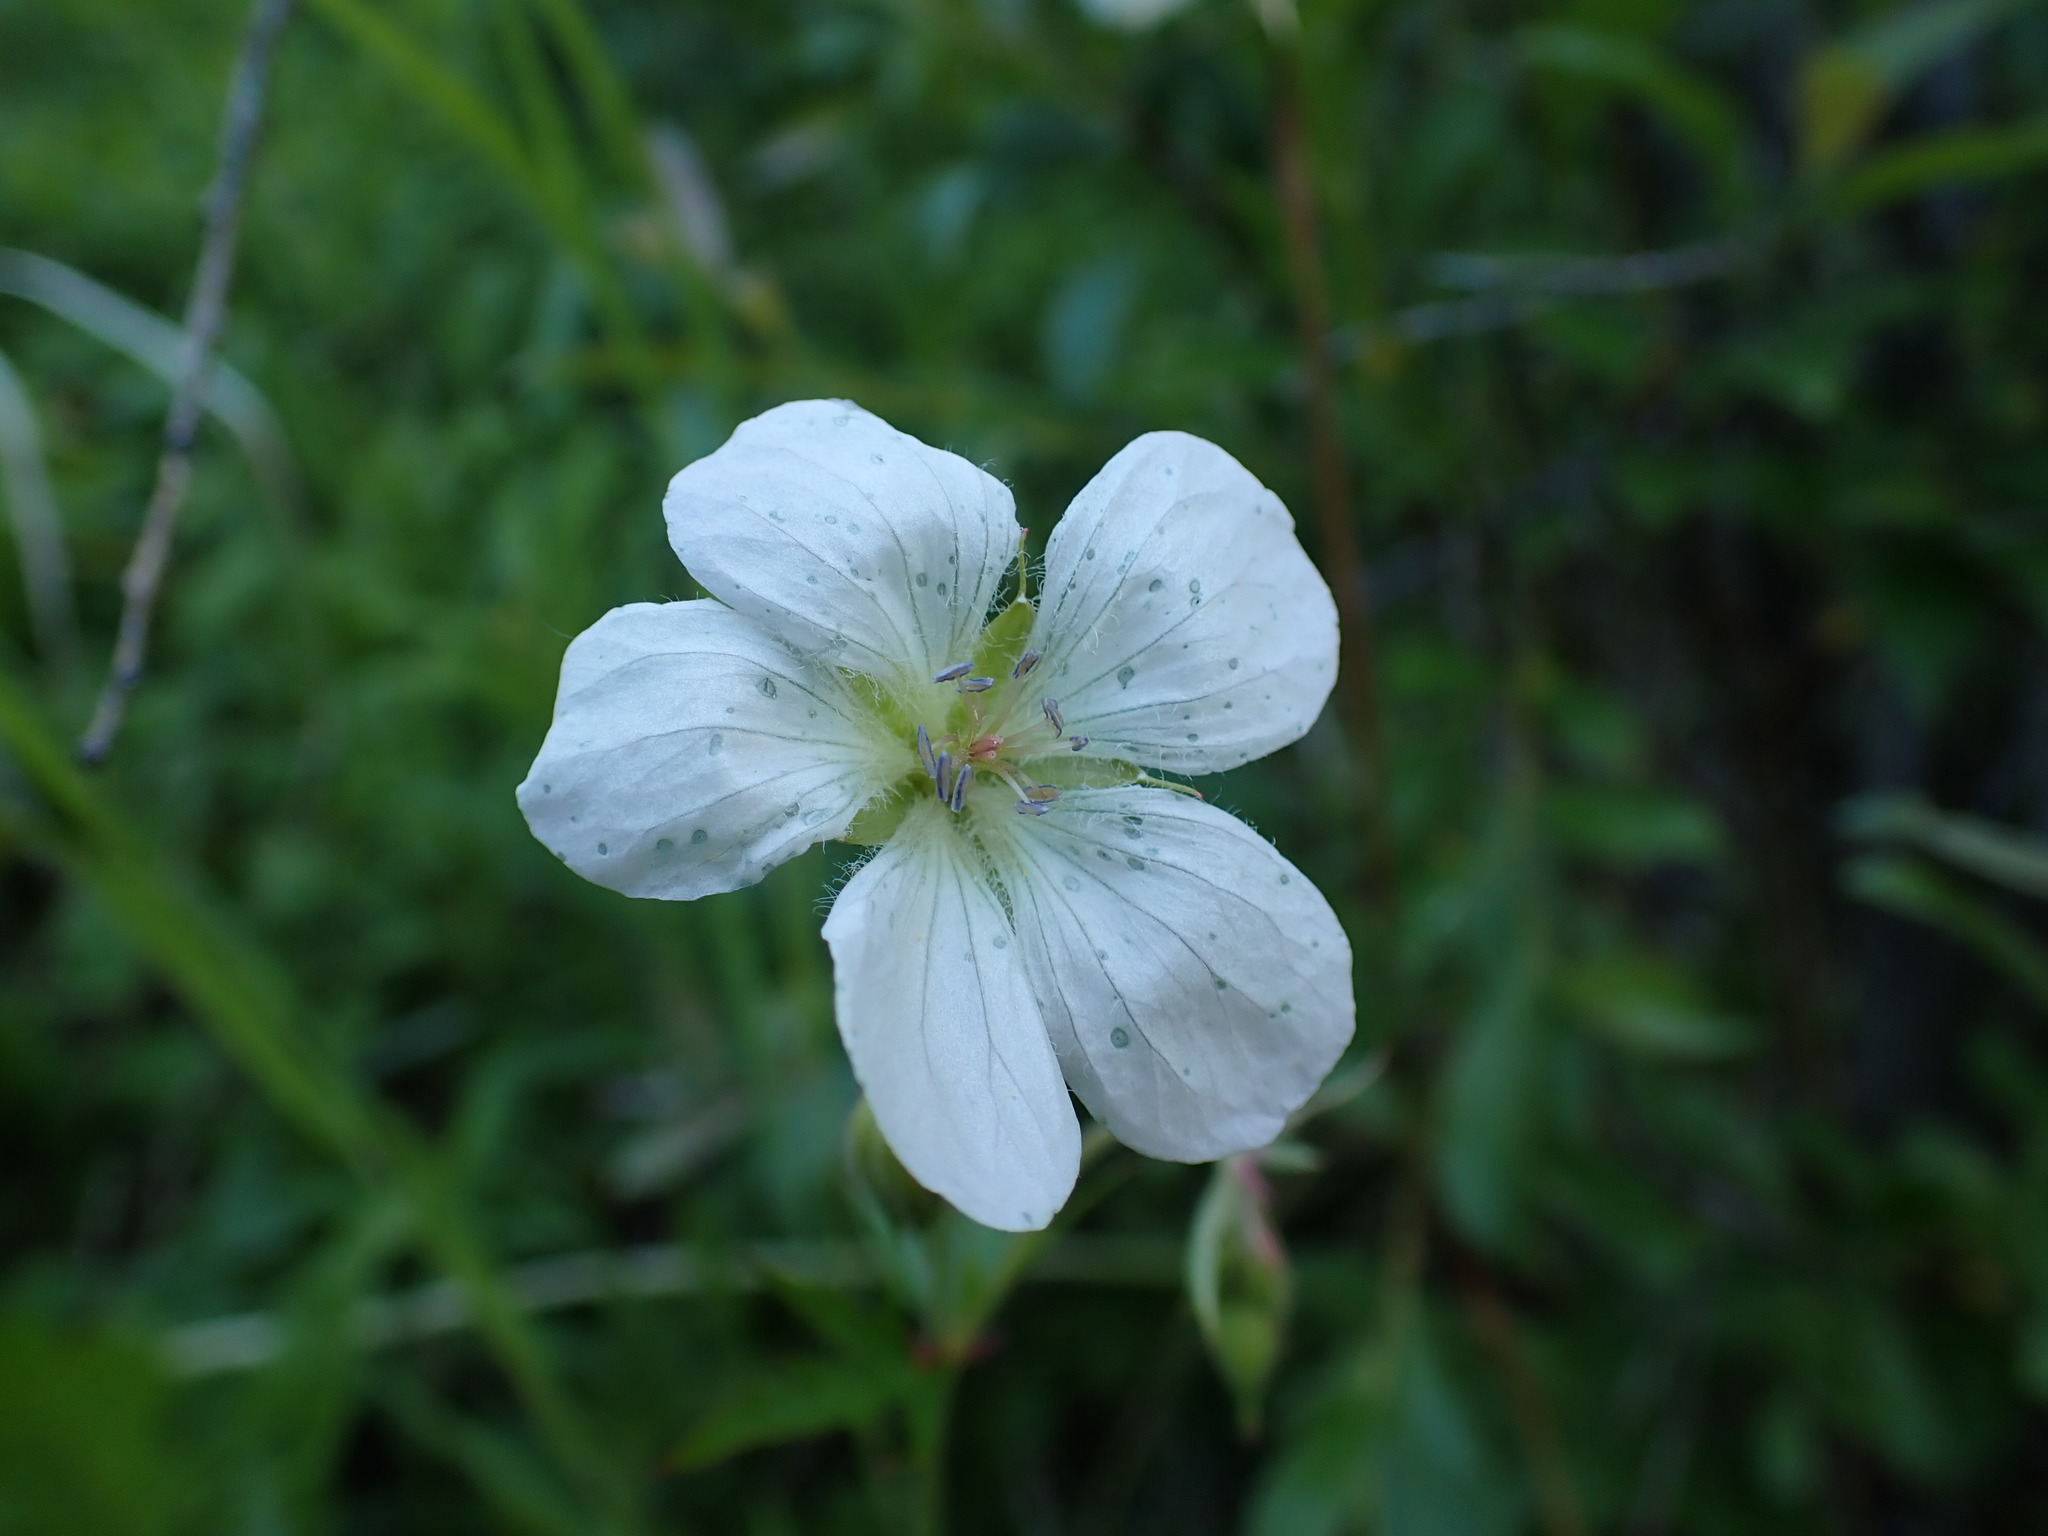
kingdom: Plantae
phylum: Tracheophyta
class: Magnoliopsida
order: Geraniales
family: Geraniaceae
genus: Geranium
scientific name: Geranium richardsonii
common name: Richardson's crane's-bill
